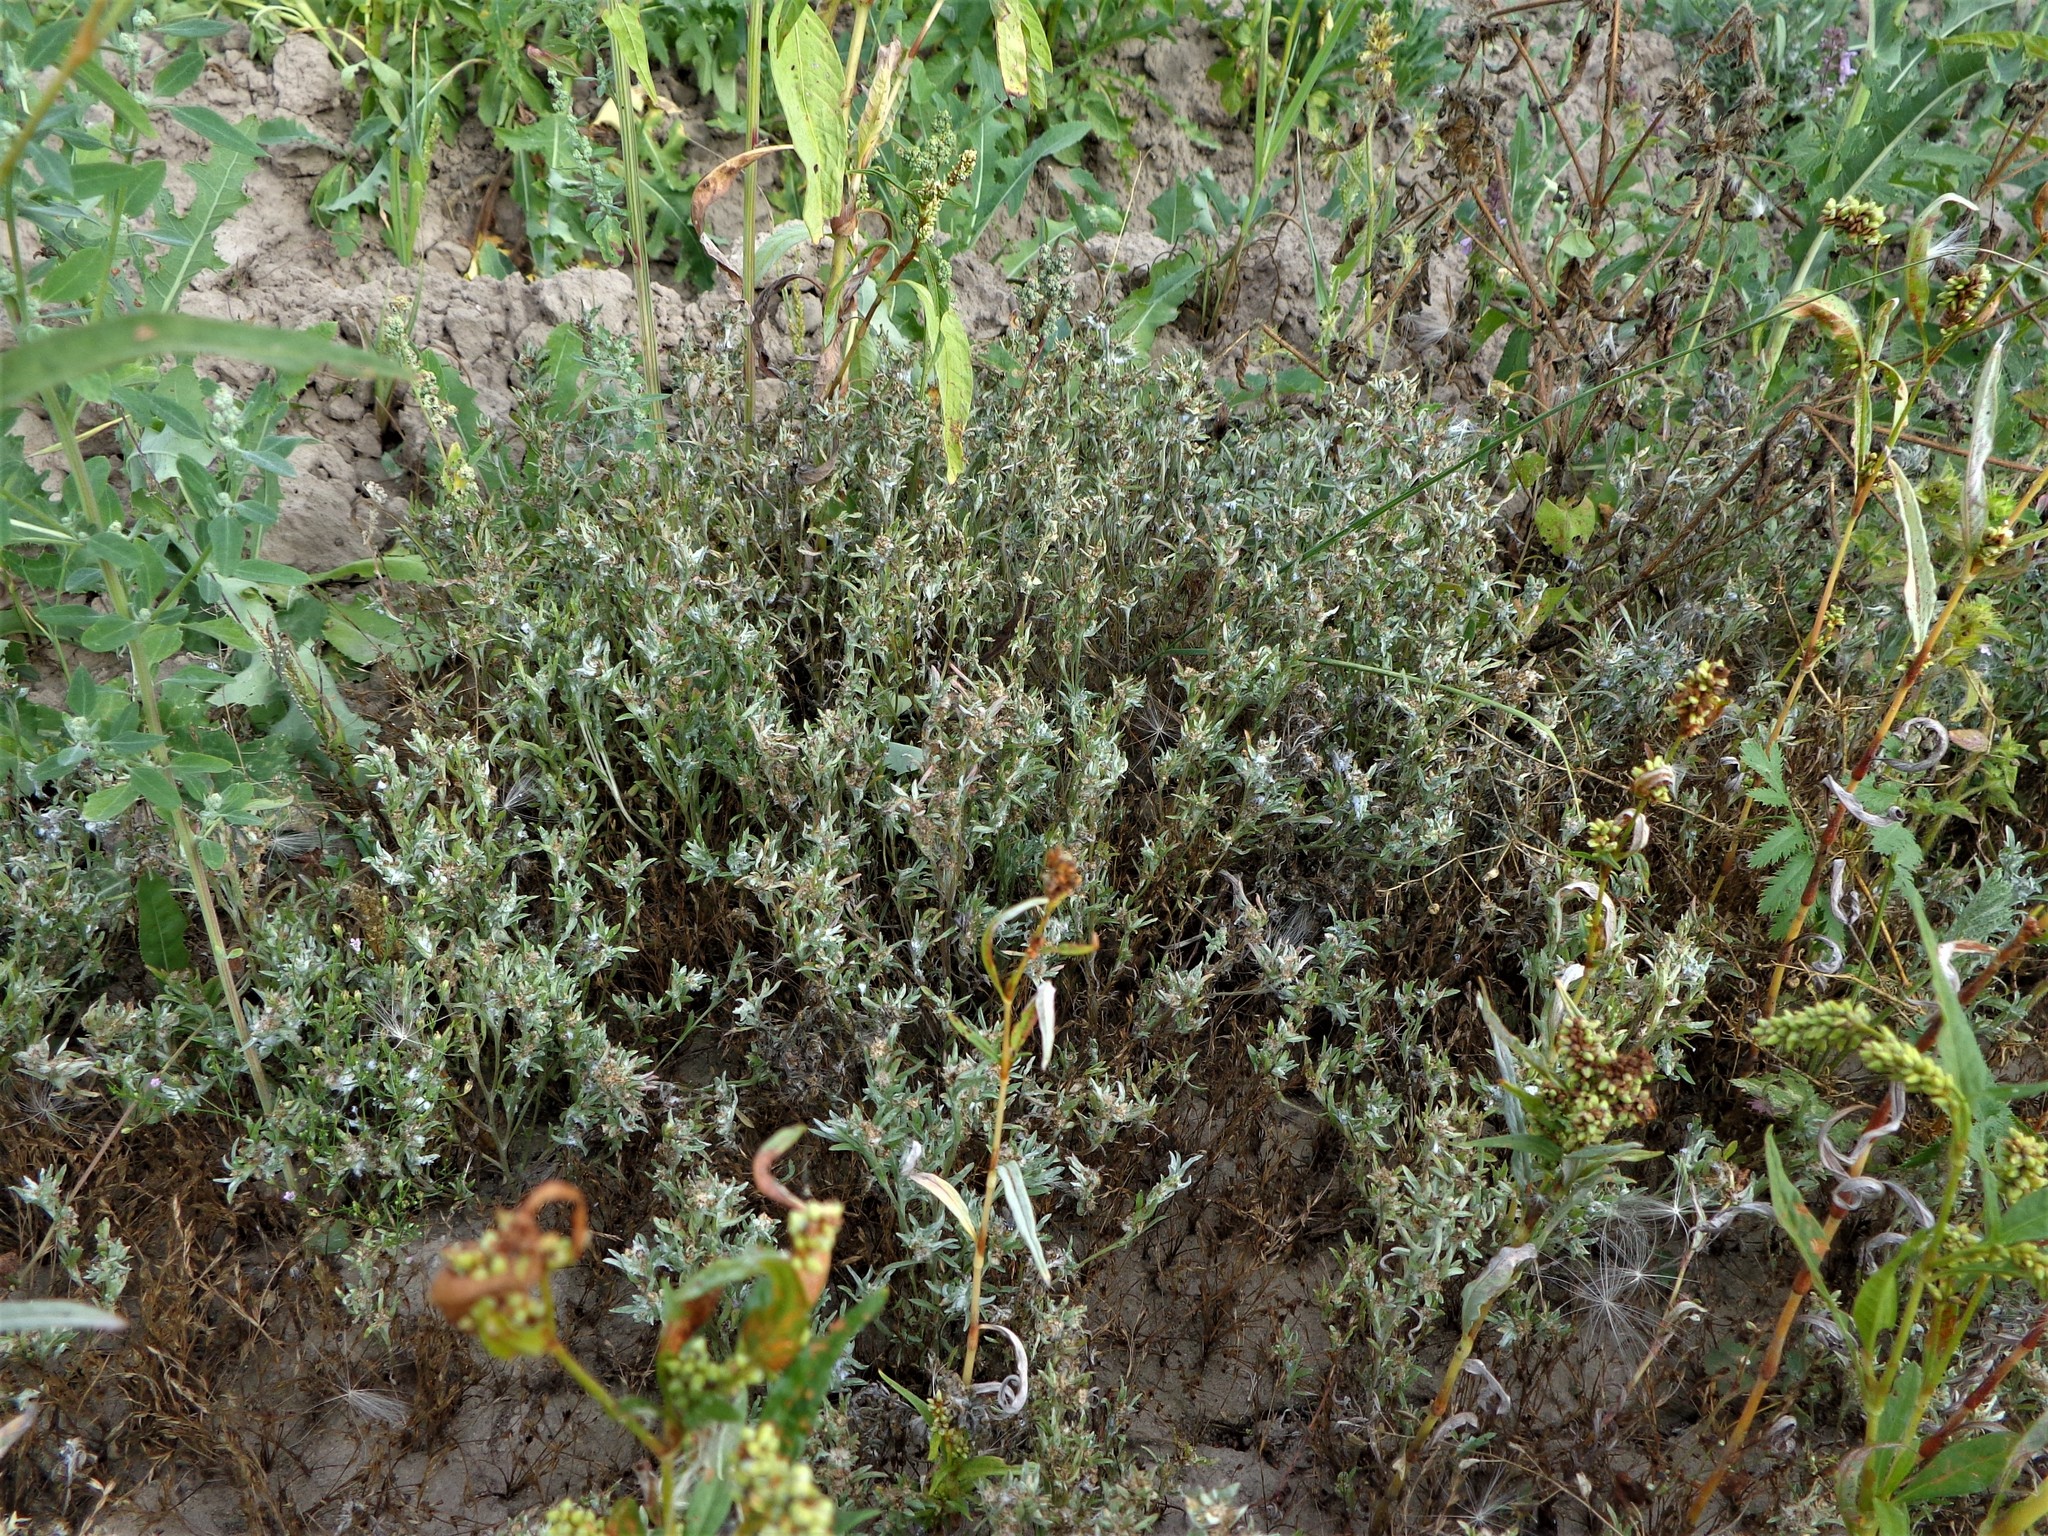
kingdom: Plantae
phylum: Tracheophyta
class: Magnoliopsida
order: Asterales
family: Asteraceae
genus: Gnaphalium
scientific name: Gnaphalium uliginosum
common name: Marsh cudweed
